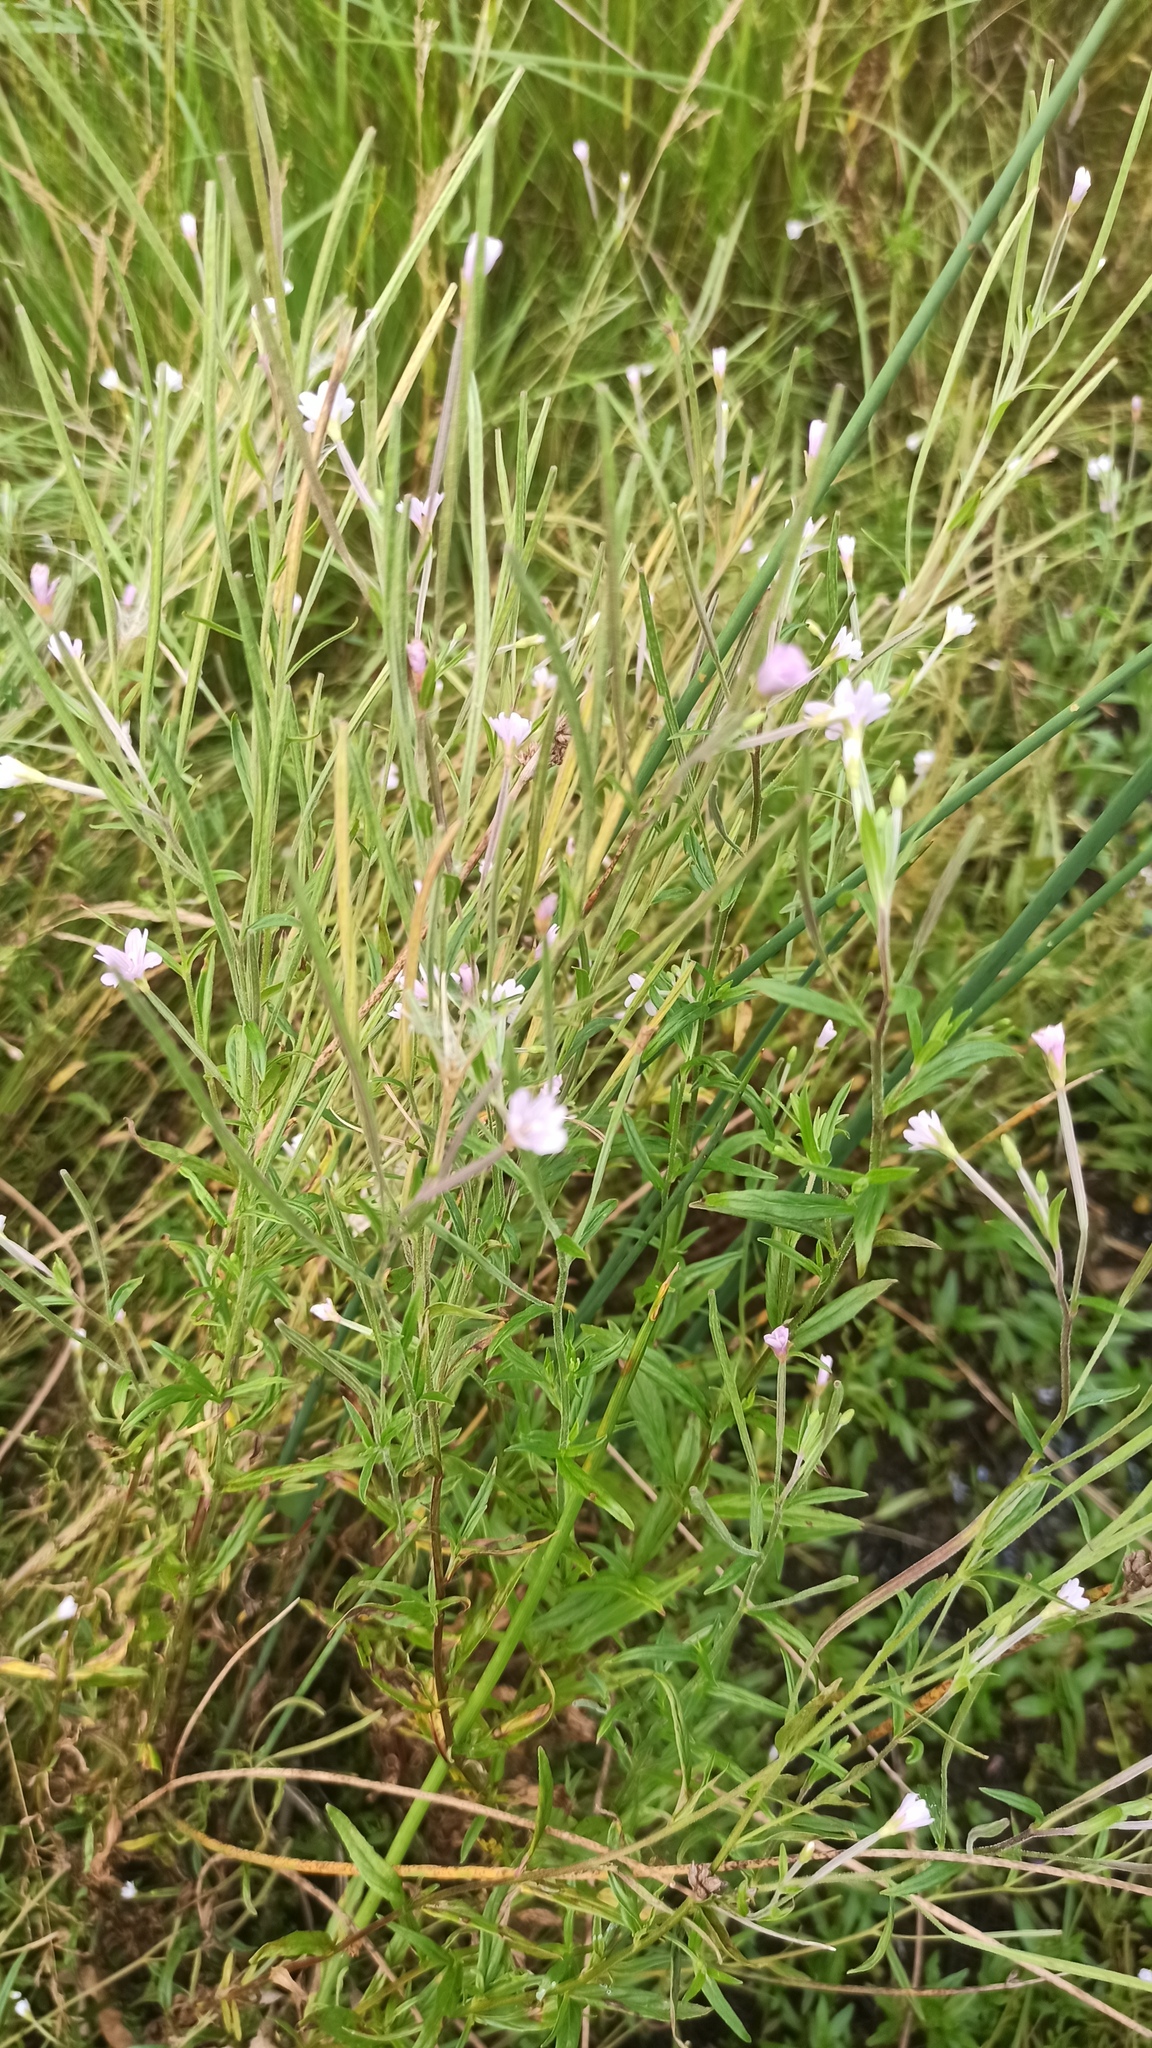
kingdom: Plantae
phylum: Tracheophyta
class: Magnoliopsida
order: Myrtales
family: Onagraceae
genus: Epilobium
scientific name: Epilobium palustre
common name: Marsh willowherb
